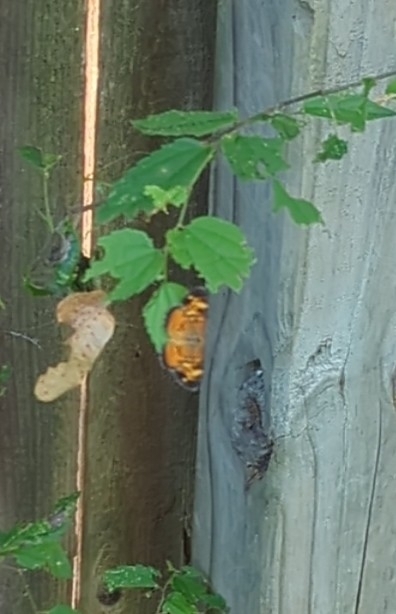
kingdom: Animalia
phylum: Arthropoda
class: Insecta
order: Lepidoptera
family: Nymphalidae
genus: Phyciodes
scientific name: Phyciodes tharos
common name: Pearl crescent
